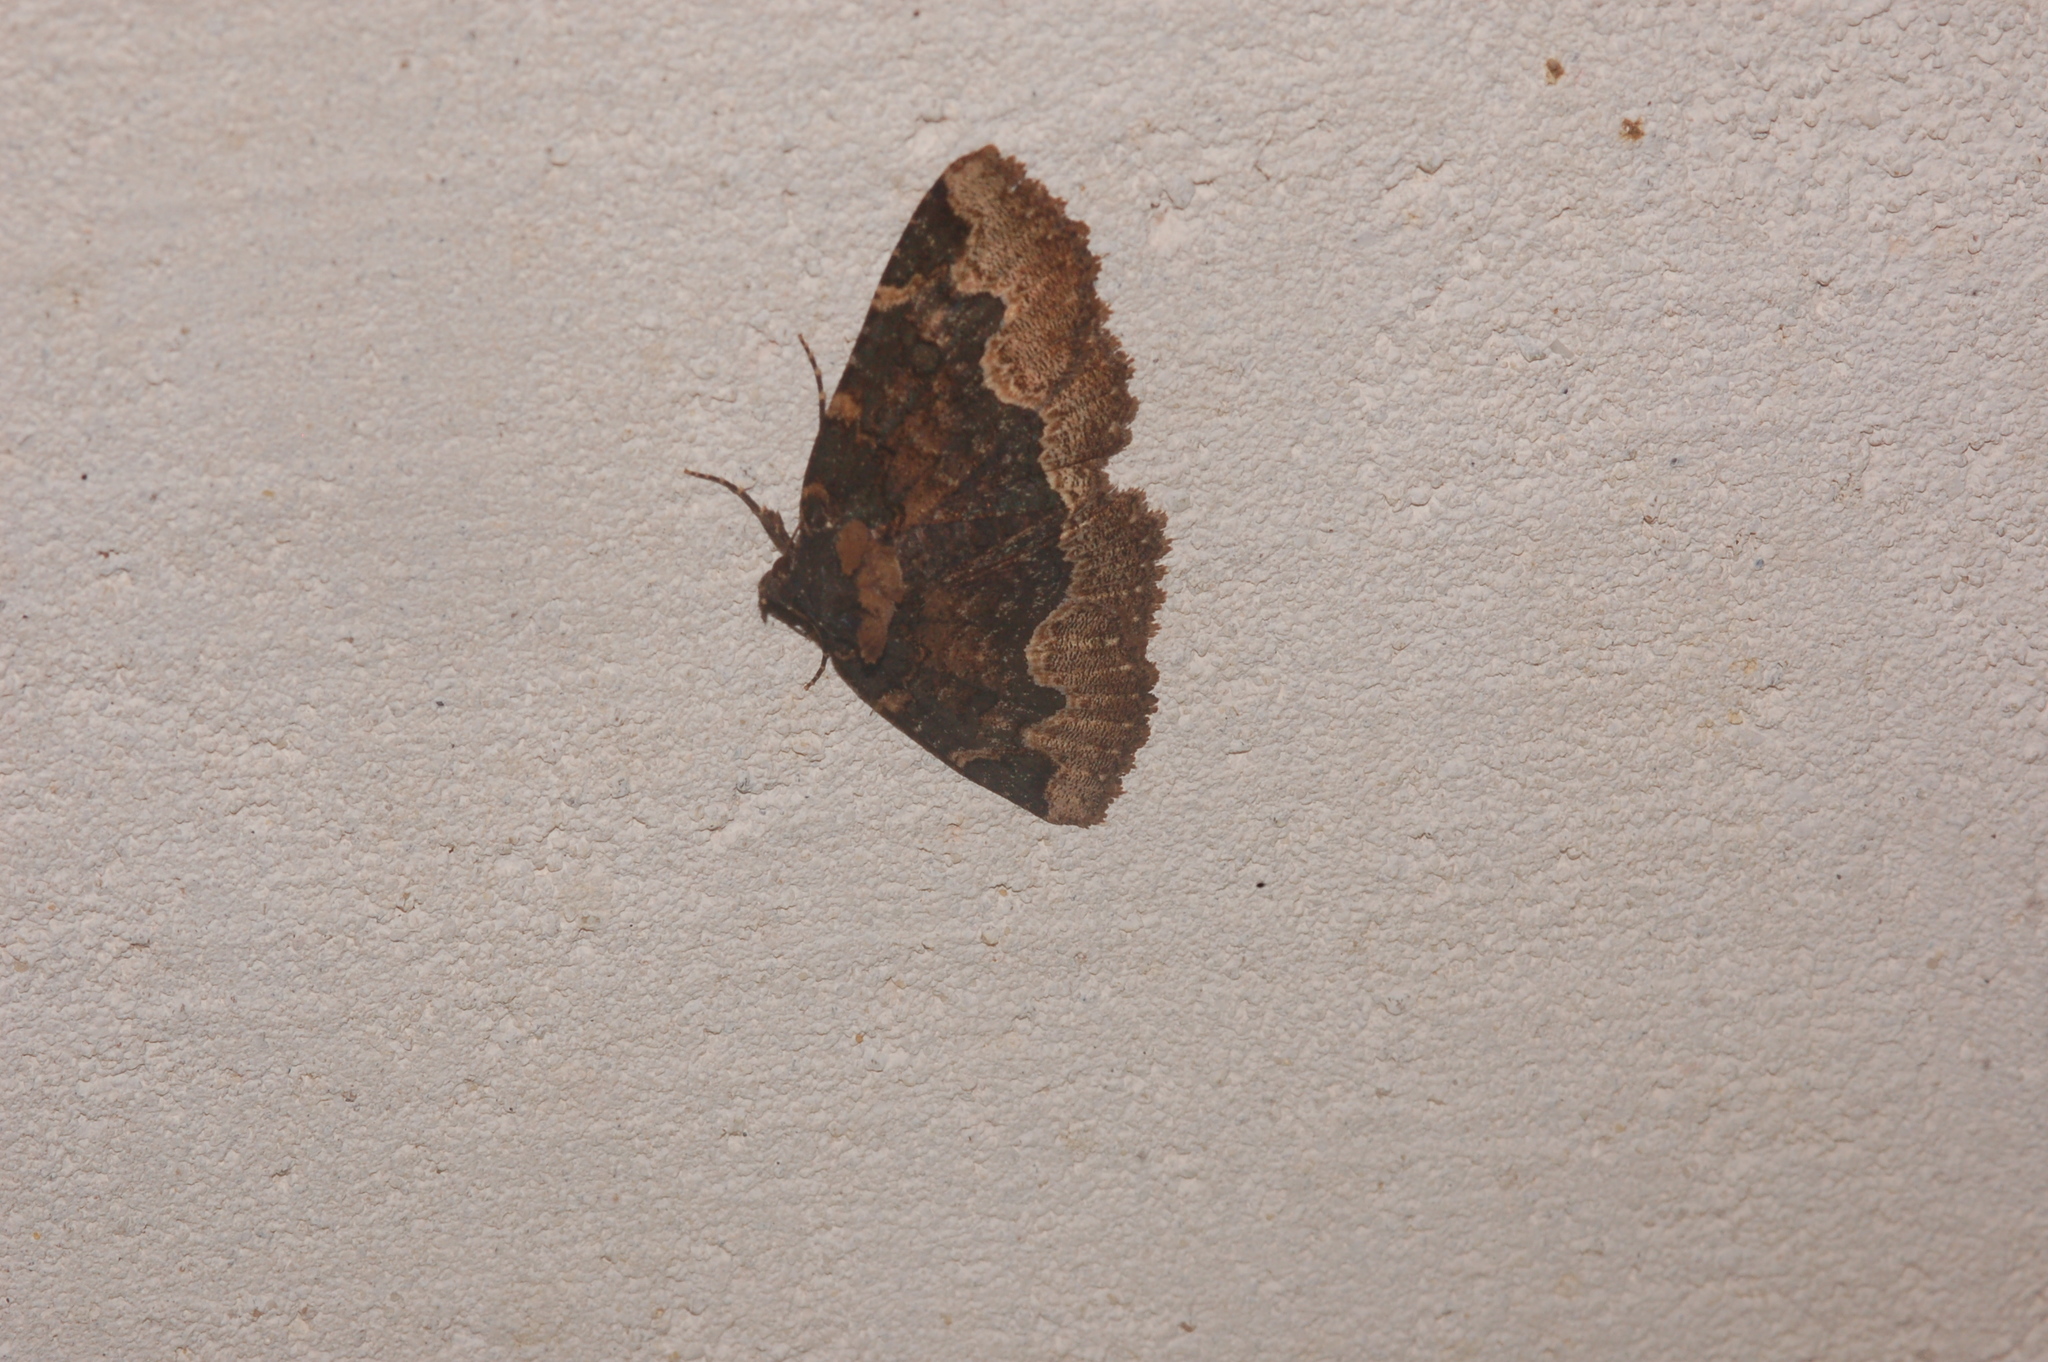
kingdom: Animalia
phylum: Arthropoda
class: Insecta
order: Lepidoptera
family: Erebidae
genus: Zale
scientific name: Zale horrida
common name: Horrid zale moth
